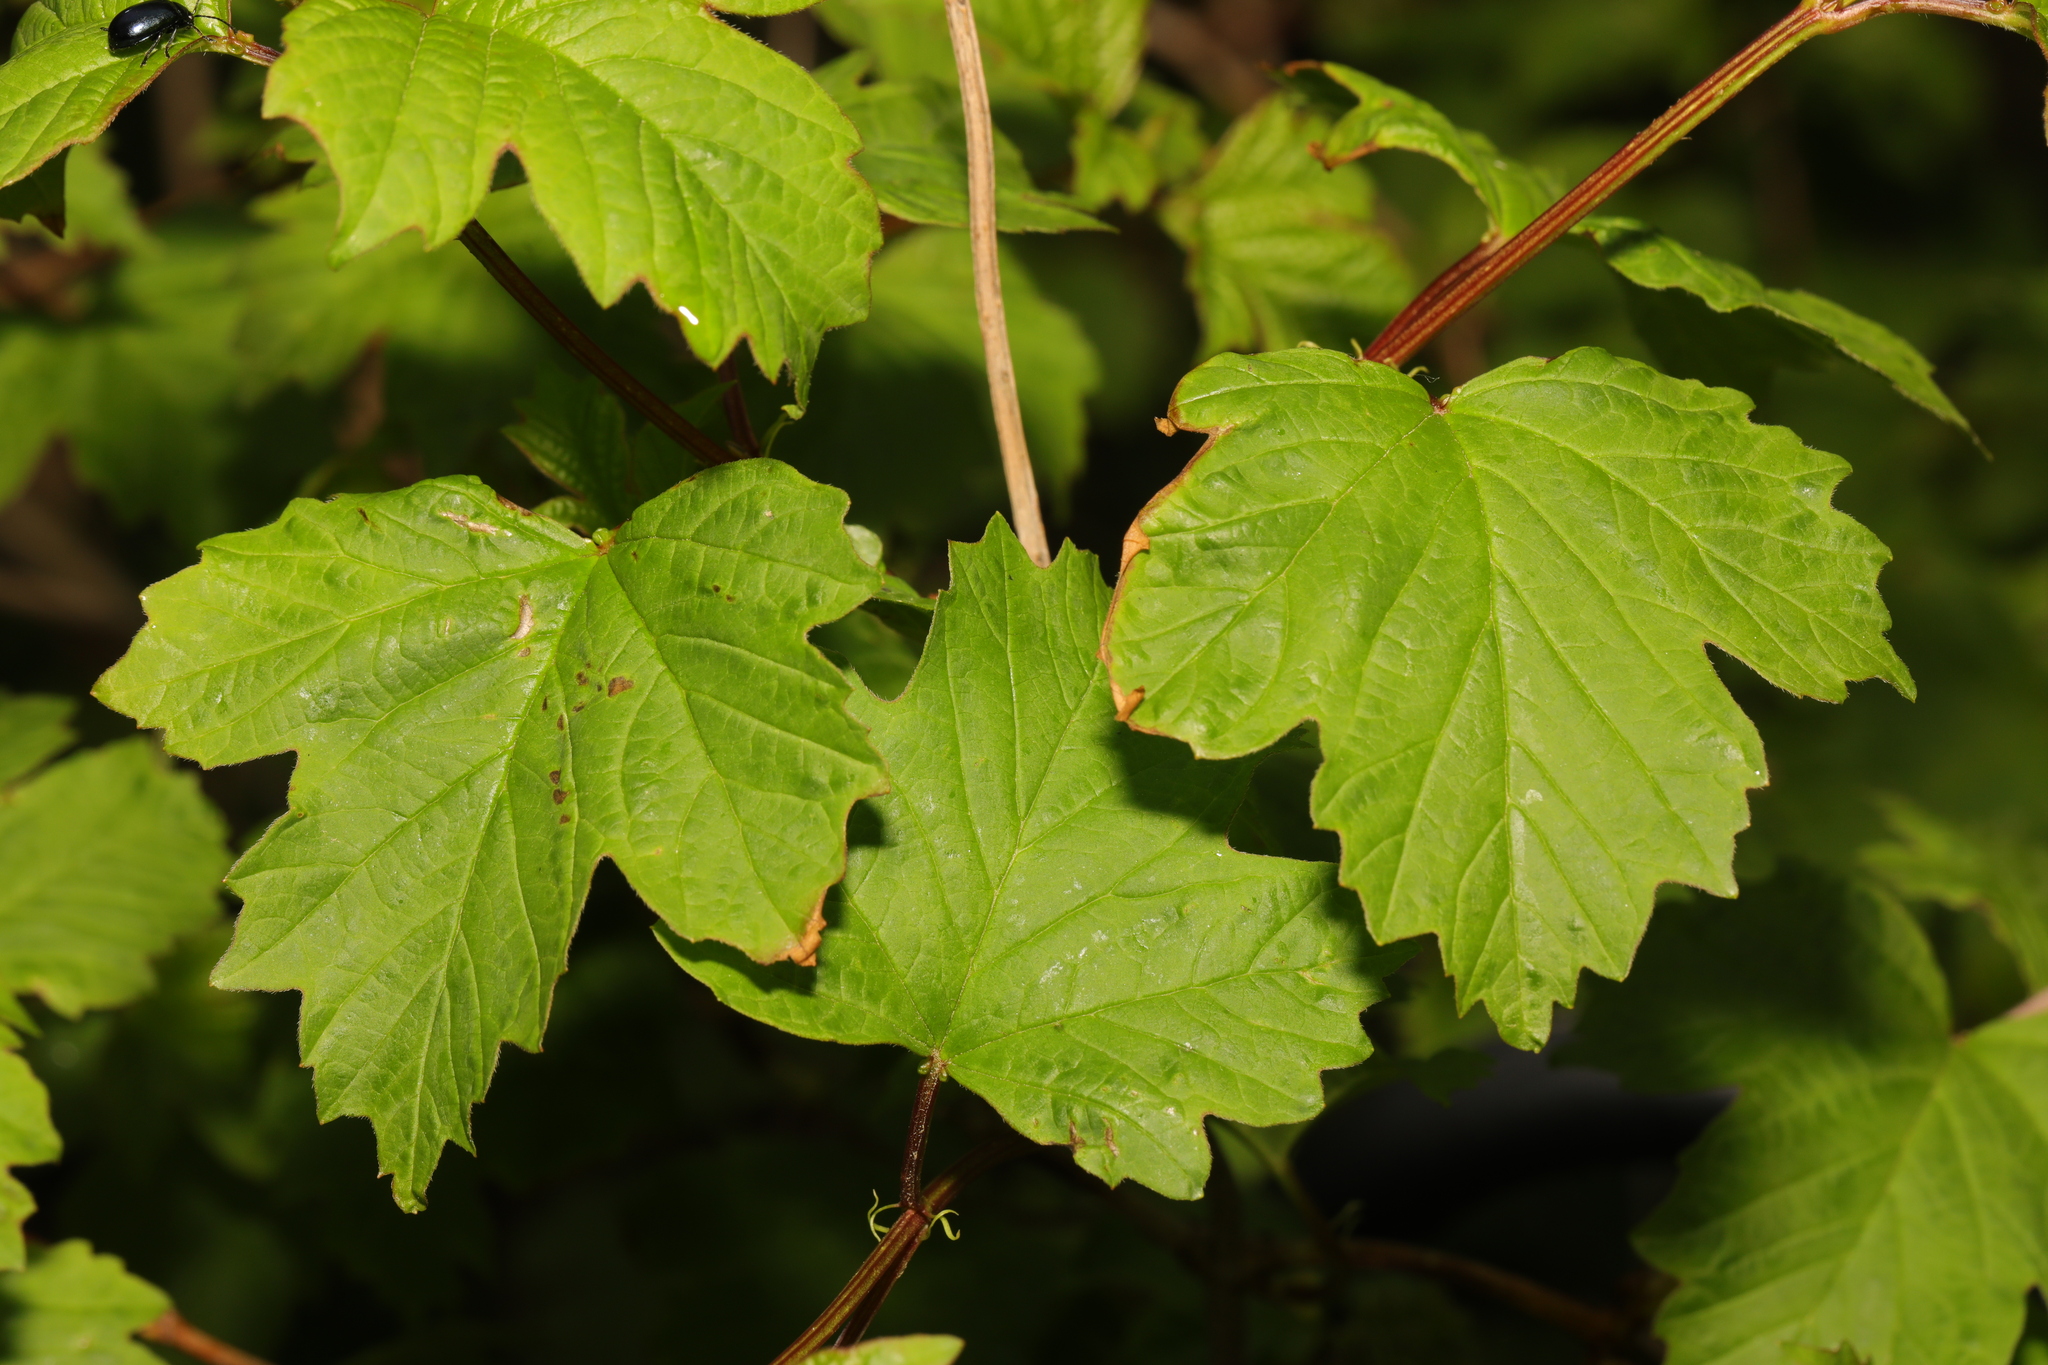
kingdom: Plantae
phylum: Tracheophyta
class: Magnoliopsida
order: Dipsacales
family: Viburnaceae
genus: Viburnum
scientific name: Viburnum opulus
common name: Guelder-rose
